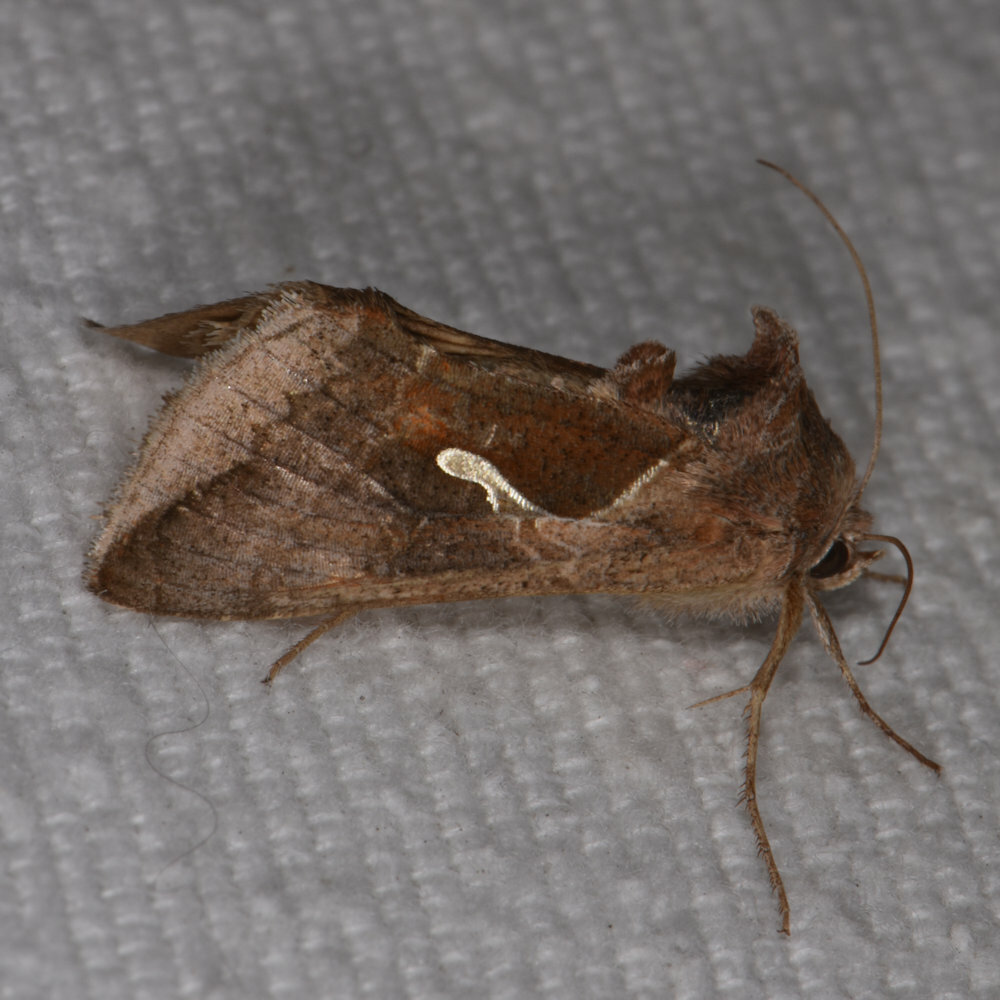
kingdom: Animalia
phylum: Arthropoda
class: Insecta
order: Lepidoptera
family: Noctuidae
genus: Autographa
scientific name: Autographa precationis
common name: Common looper moth
